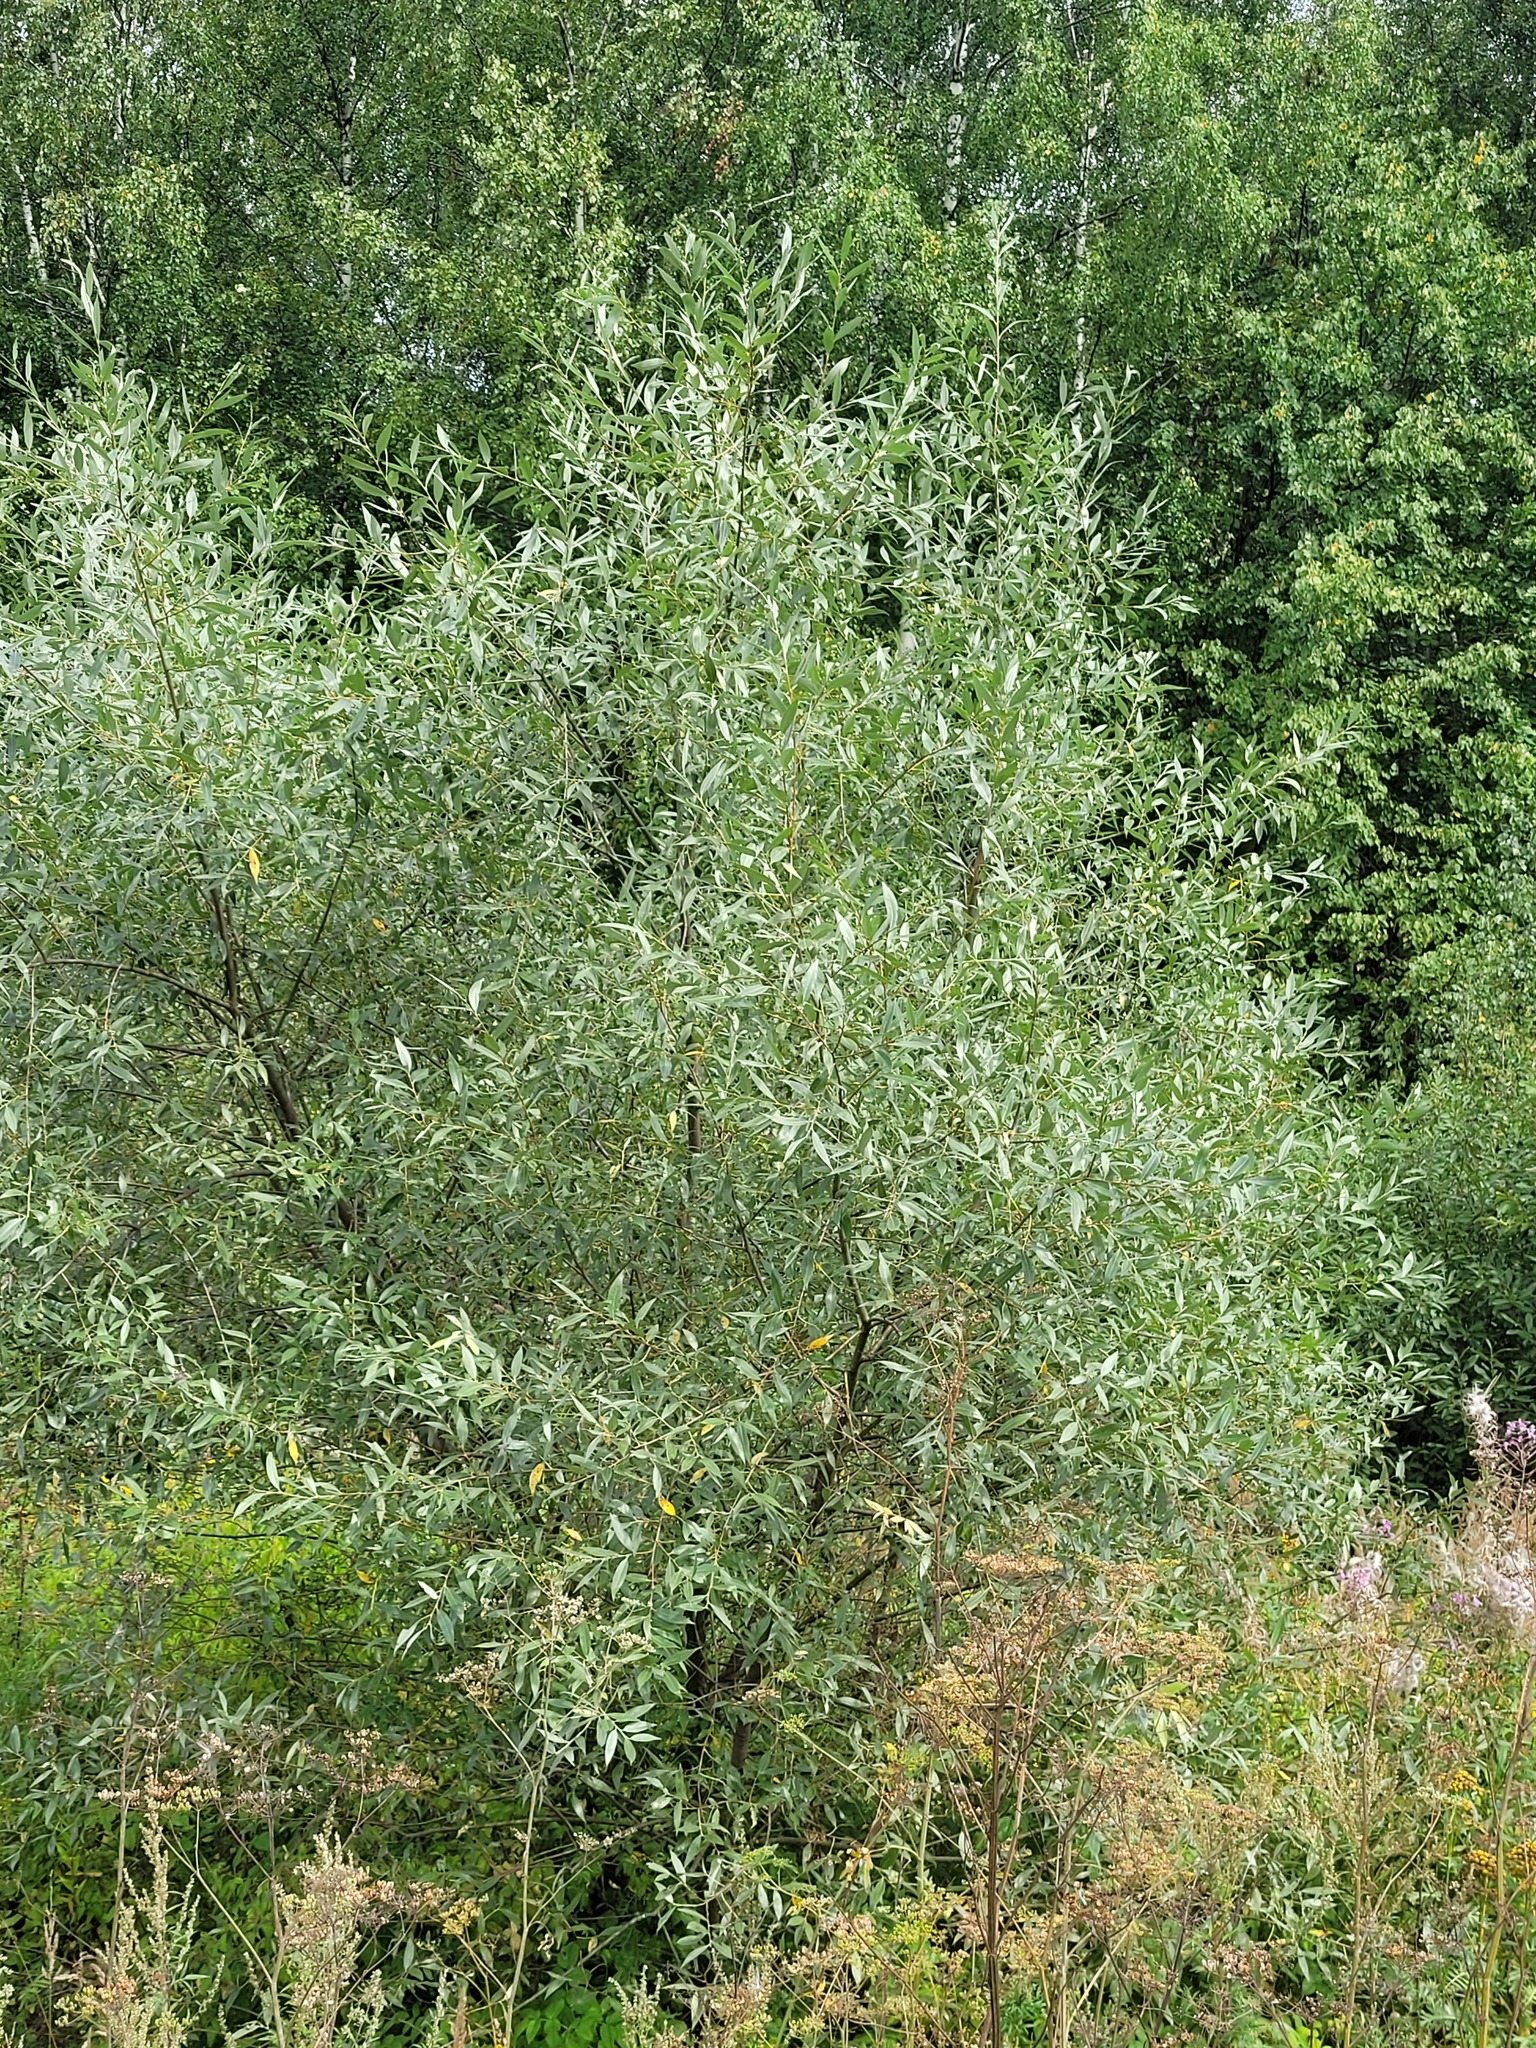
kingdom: Plantae
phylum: Tracheophyta
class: Magnoliopsida
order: Malpighiales
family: Salicaceae
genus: Salix
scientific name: Salix alba
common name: White willow
